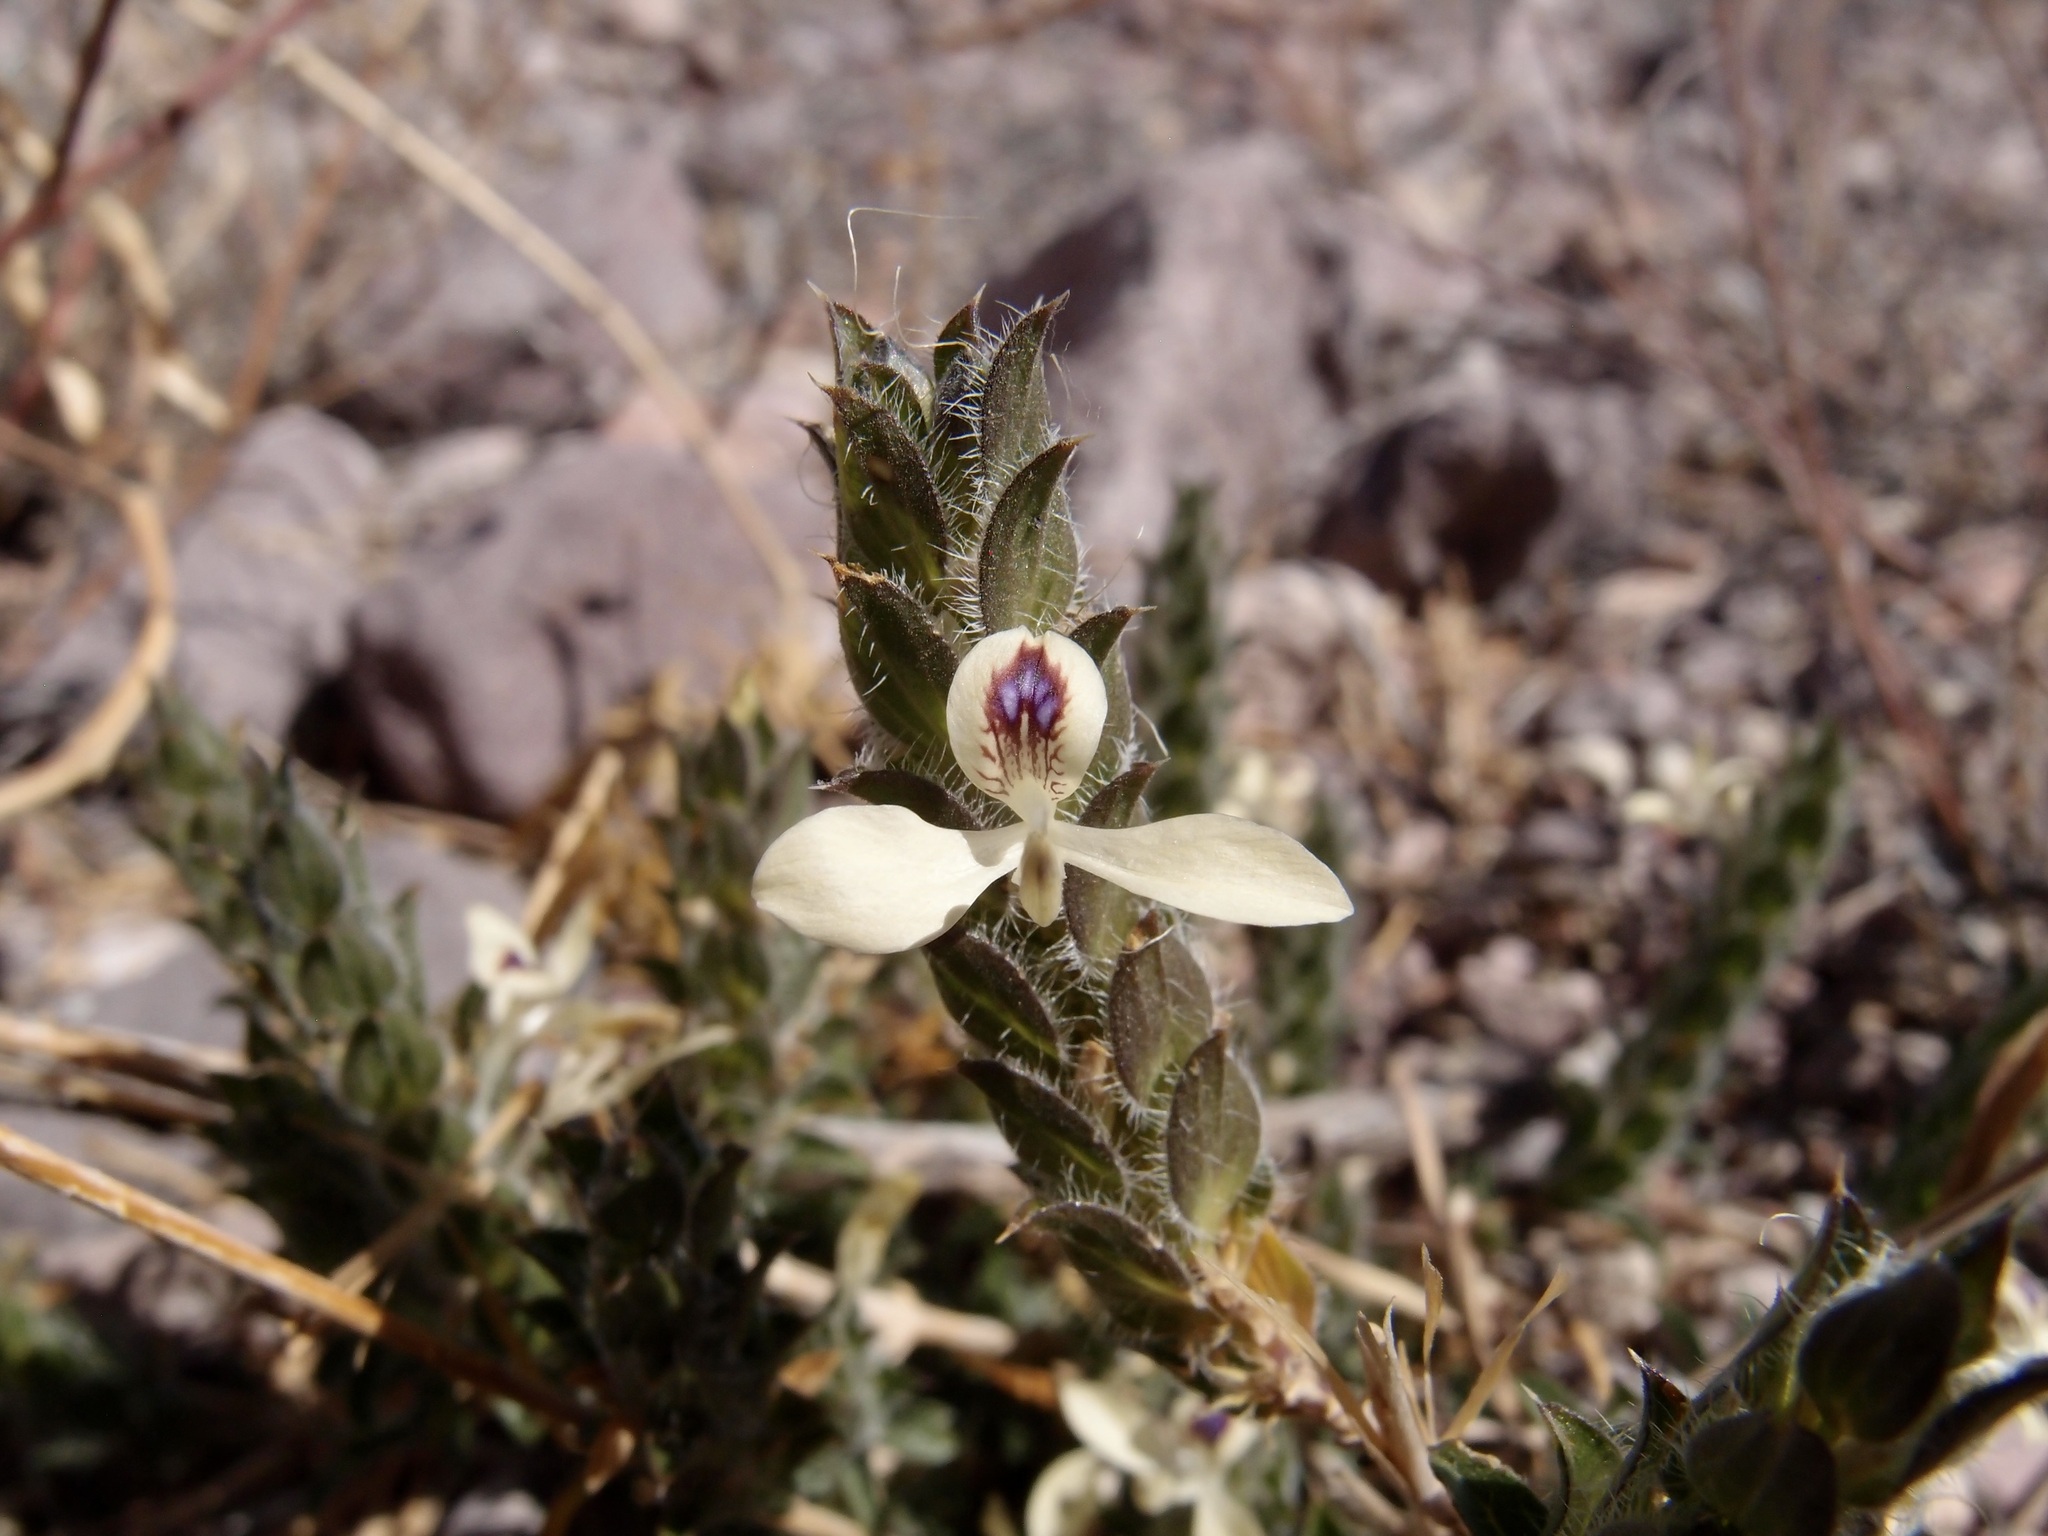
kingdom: Plantae
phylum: Tracheophyta
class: Magnoliopsida
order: Lamiales
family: Acanthaceae
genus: Tetramerium
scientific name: Tetramerium nervosum
